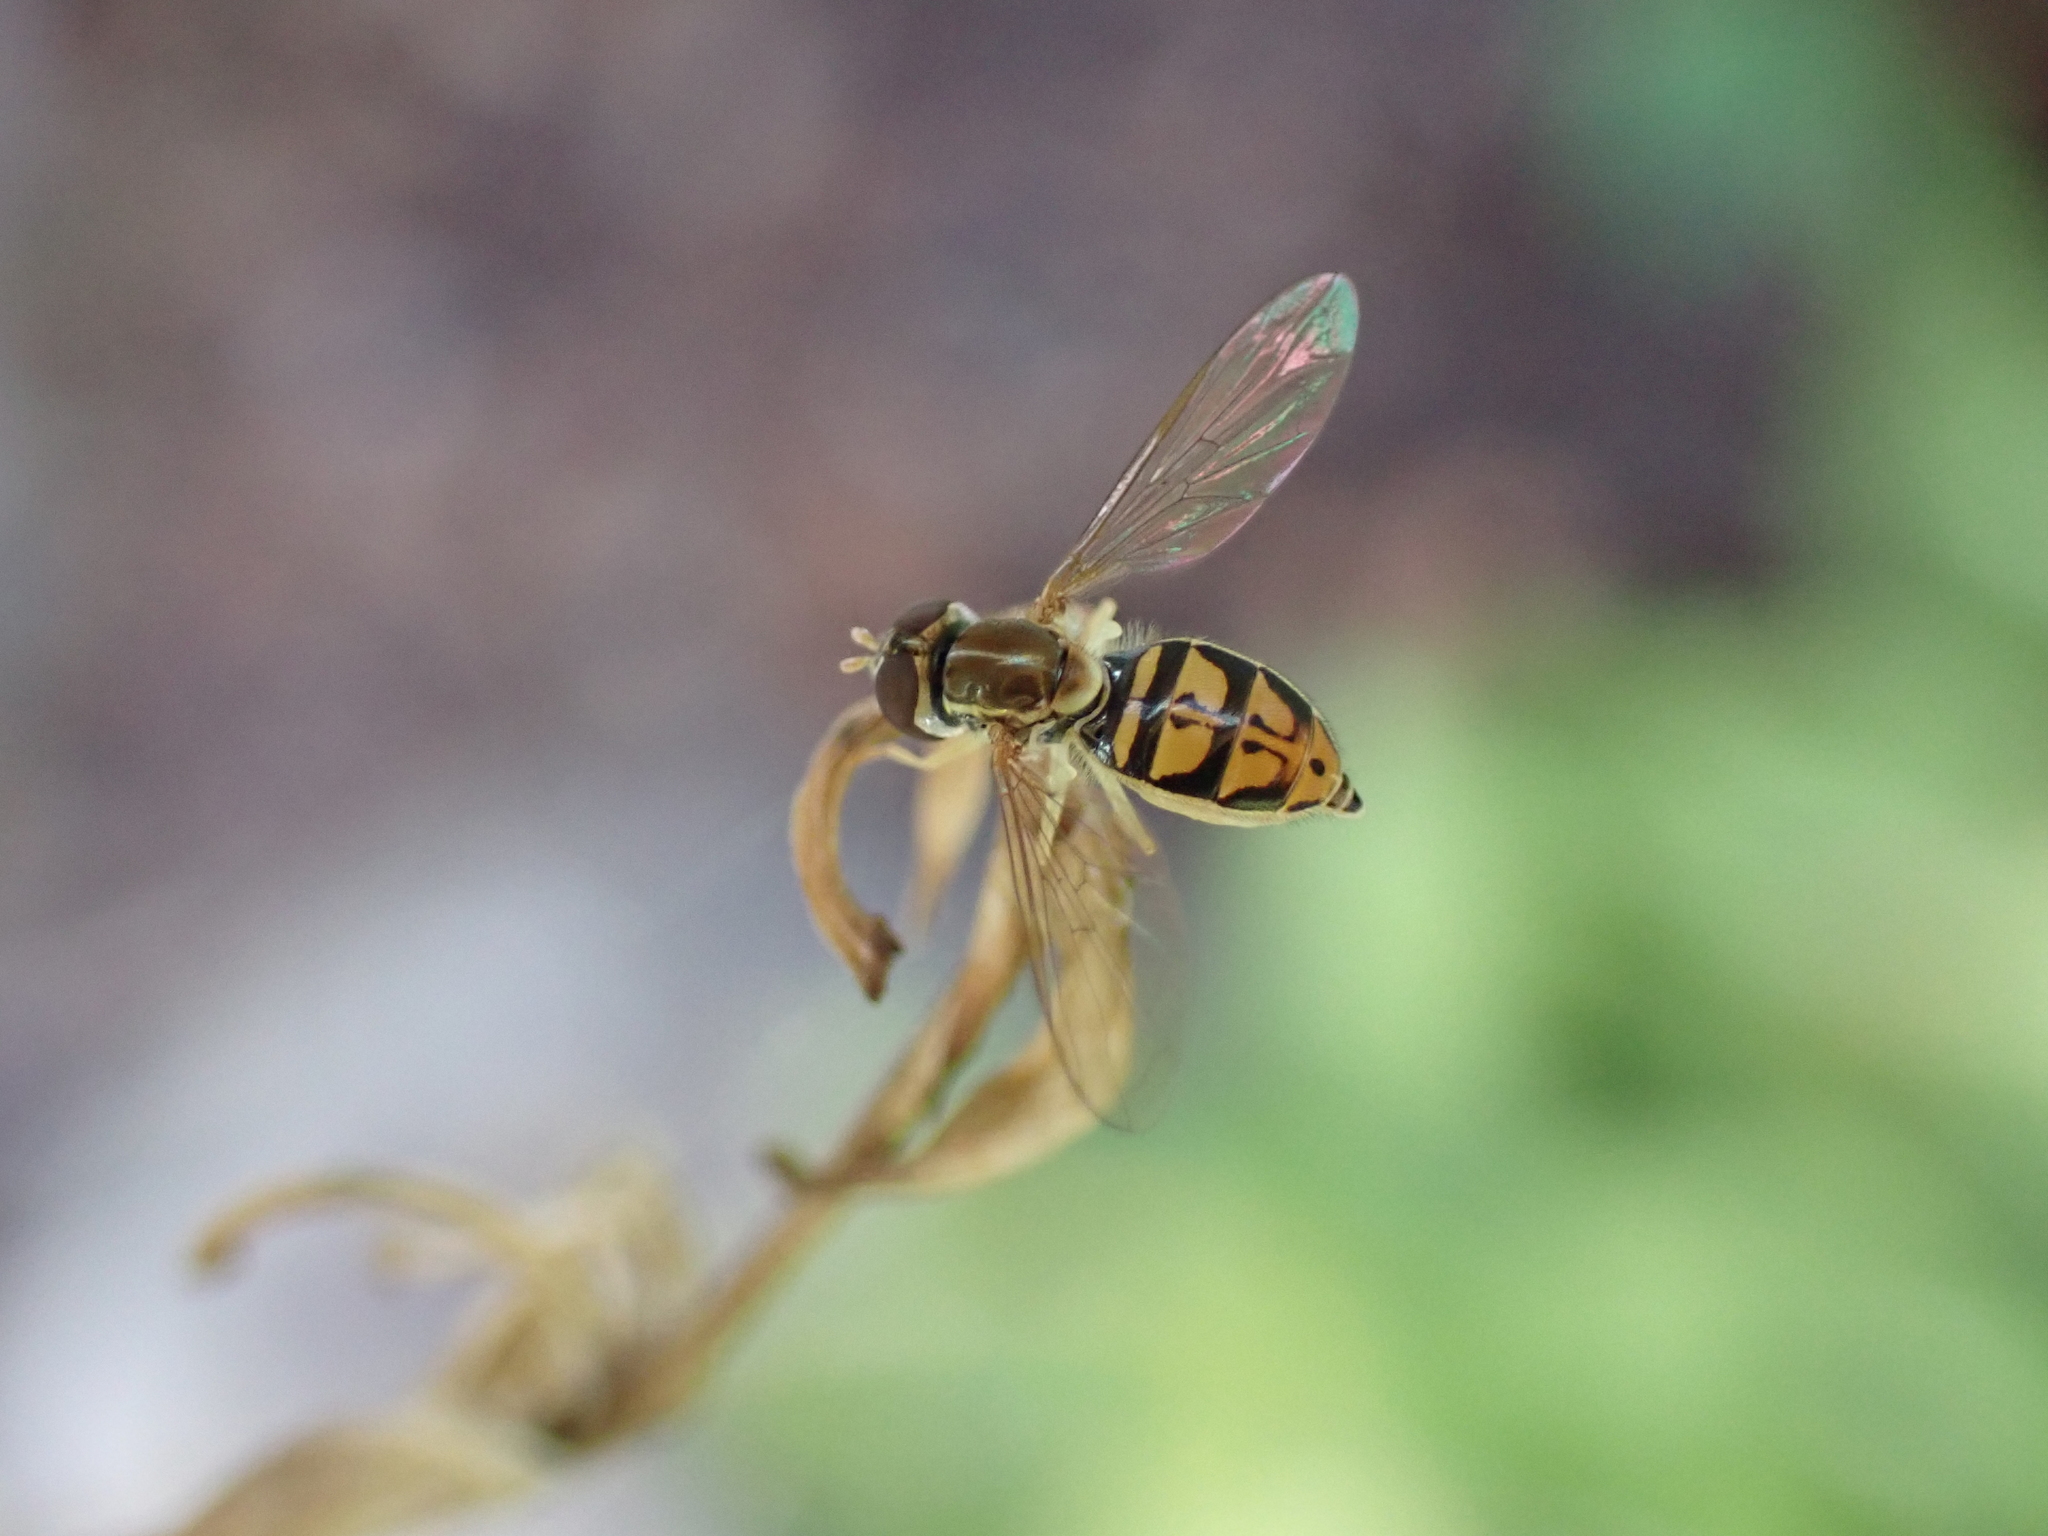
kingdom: Animalia
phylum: Arthropoda
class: Insecta
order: Diptera
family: Syrphidae
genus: Toxomerus
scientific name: Toxomerus marginatus
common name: Syrphid fly
